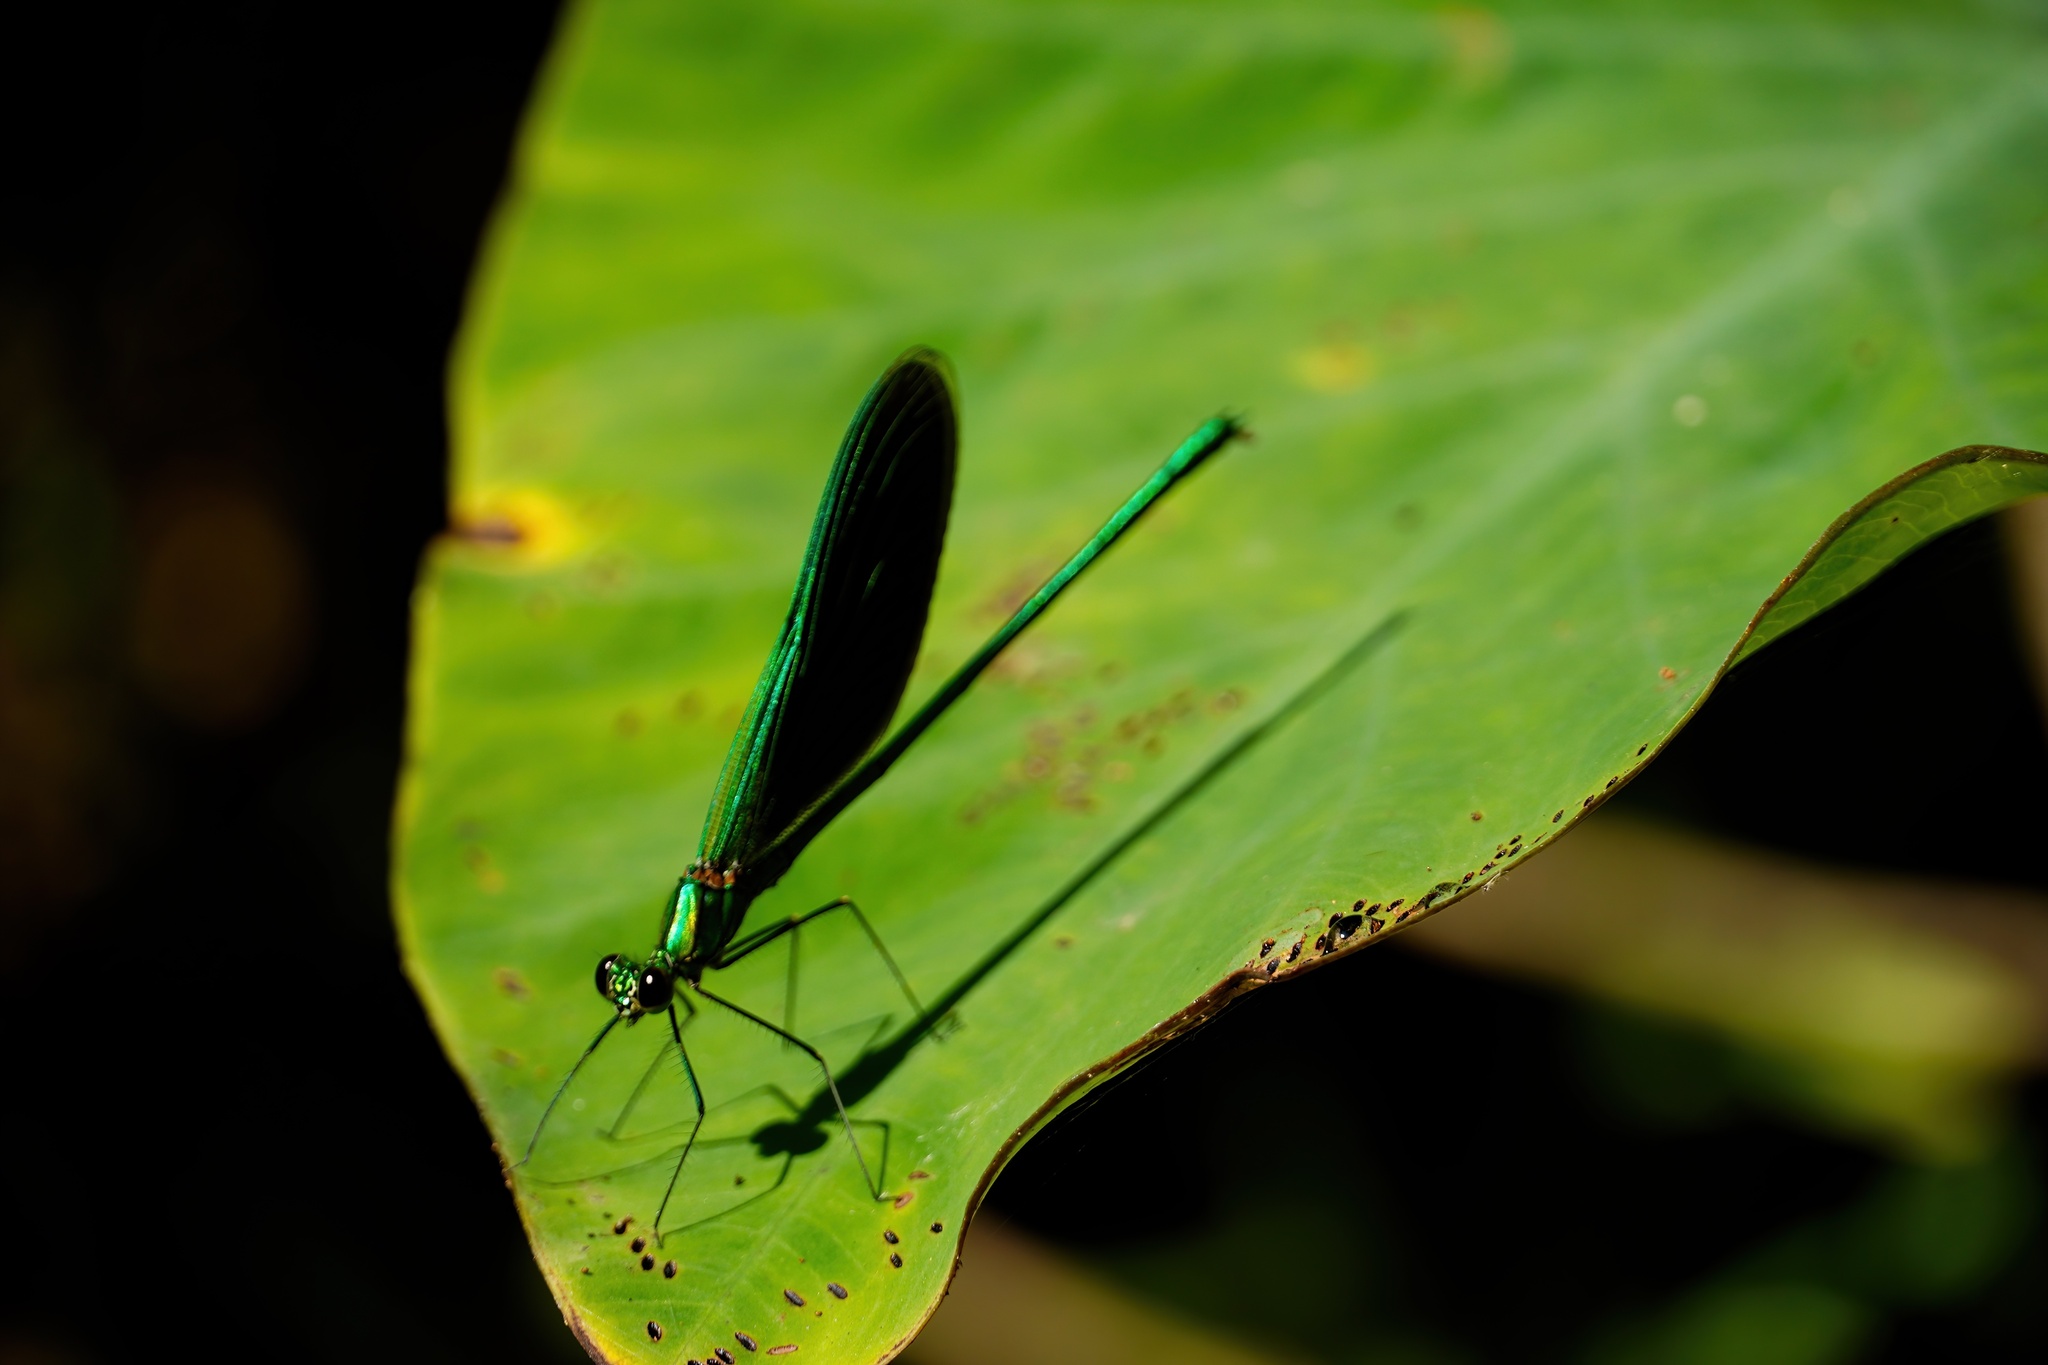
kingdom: Animalia
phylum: Arthropoda
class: Insecta
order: Odonata
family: Calopterygidae
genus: Neurobasis
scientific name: Neurobasis chinensis
